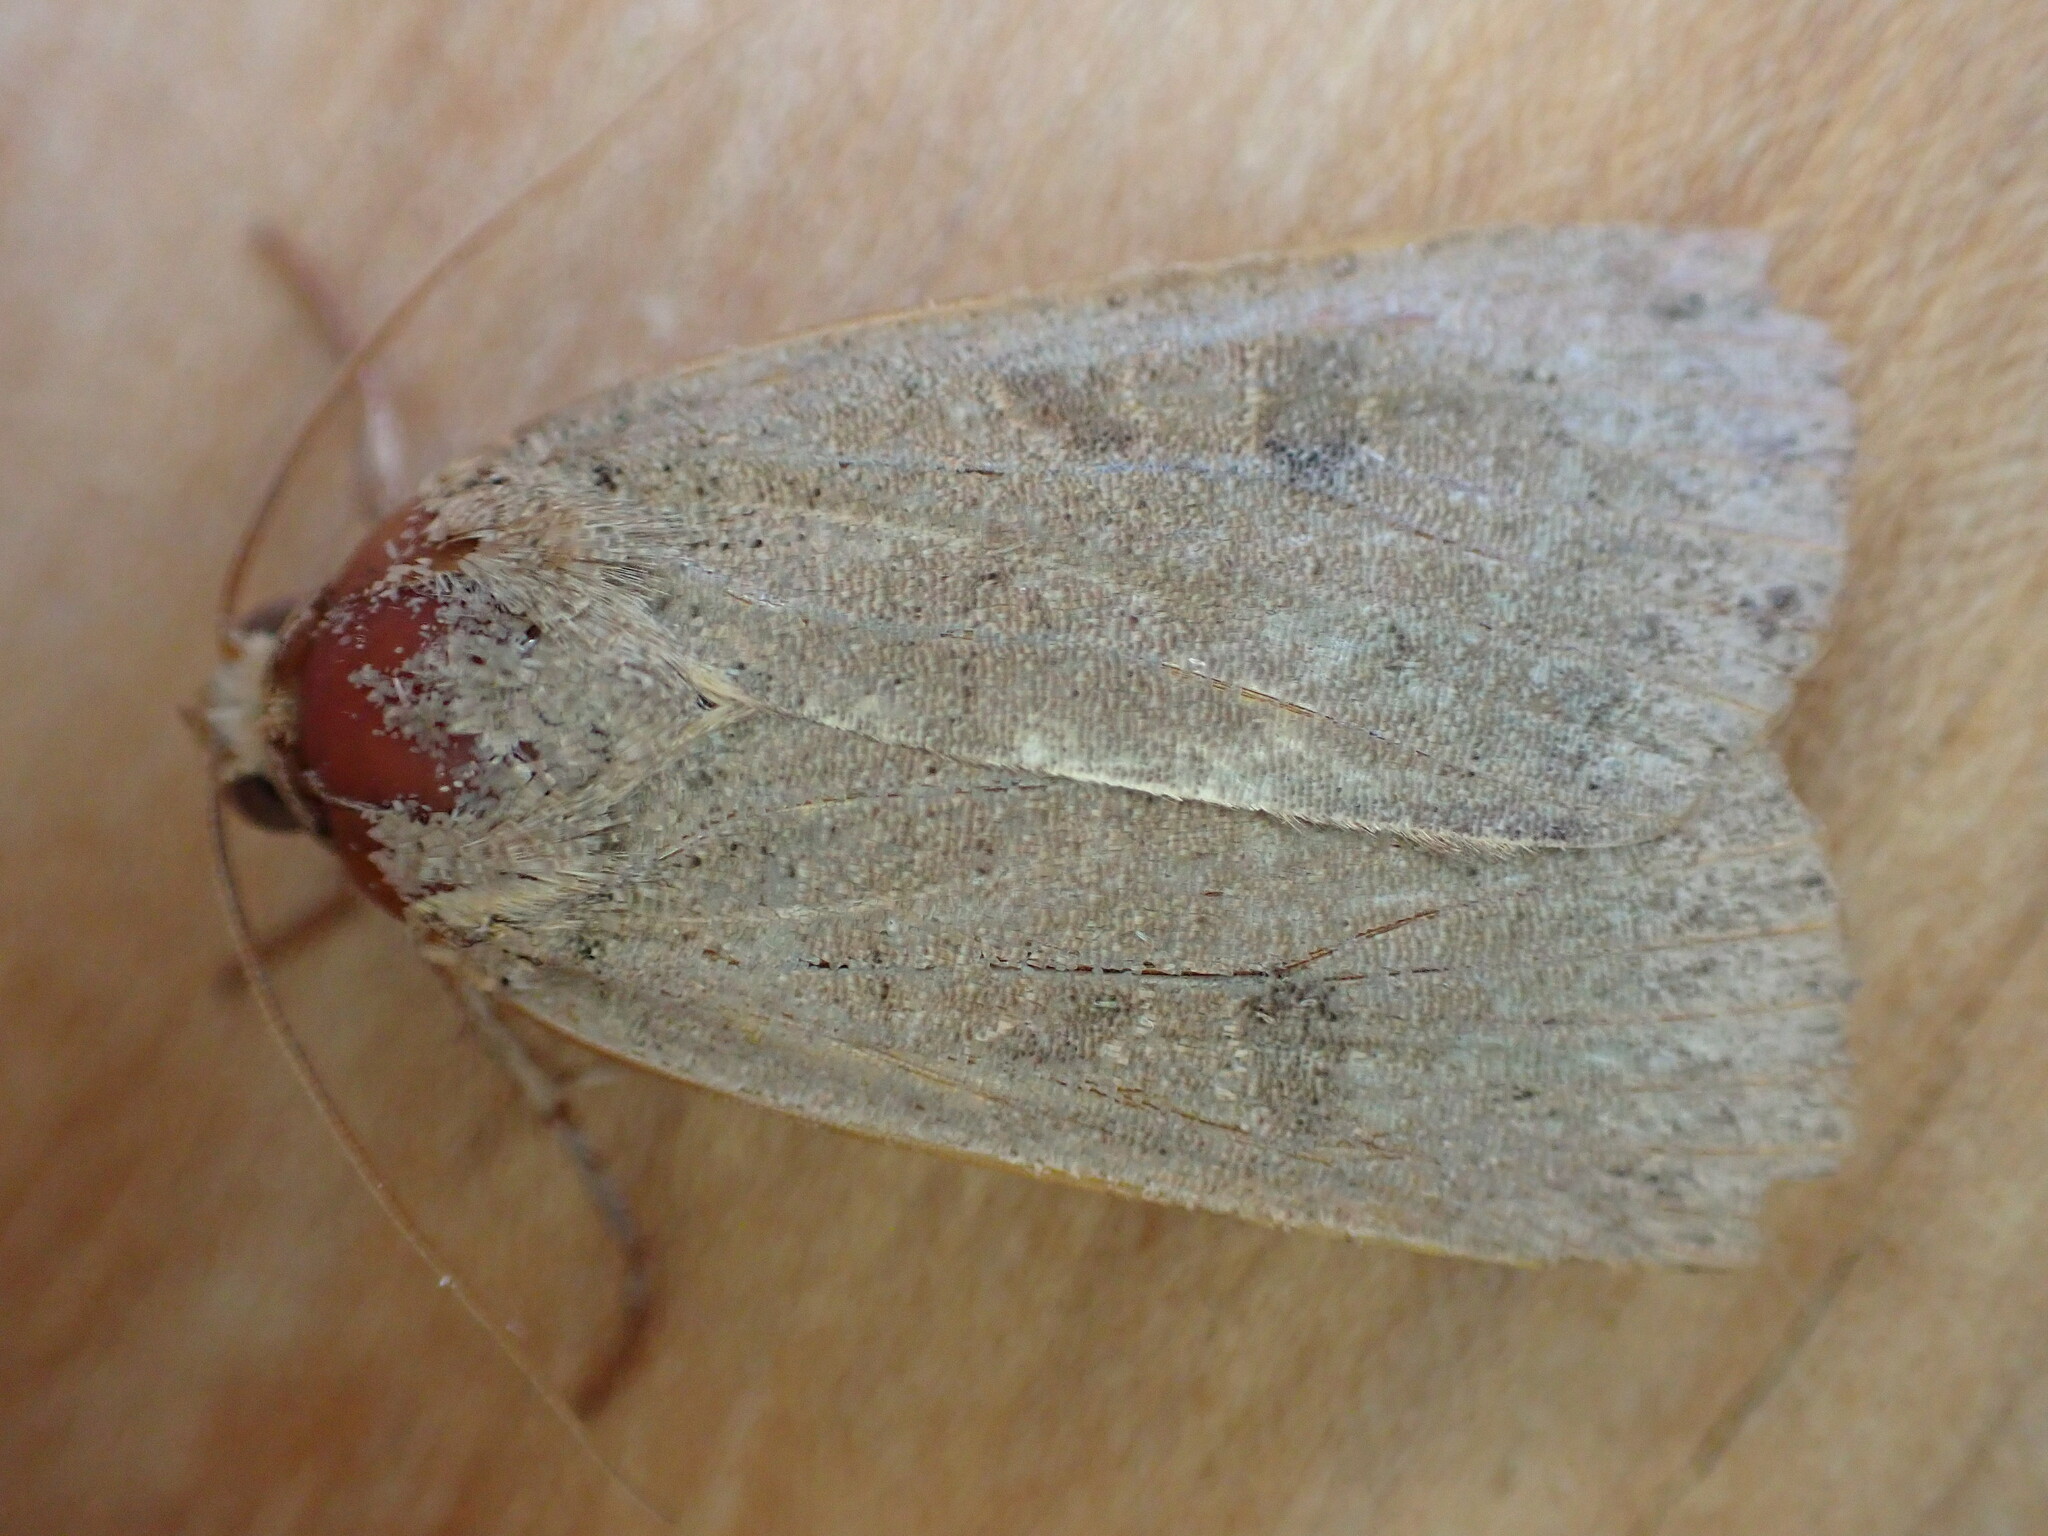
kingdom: Animalia
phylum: Arthropoda
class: Insecta
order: Lepidoptera
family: Noctuidae
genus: Noctua
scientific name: Noctua comes
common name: Lesser yellow underwing
